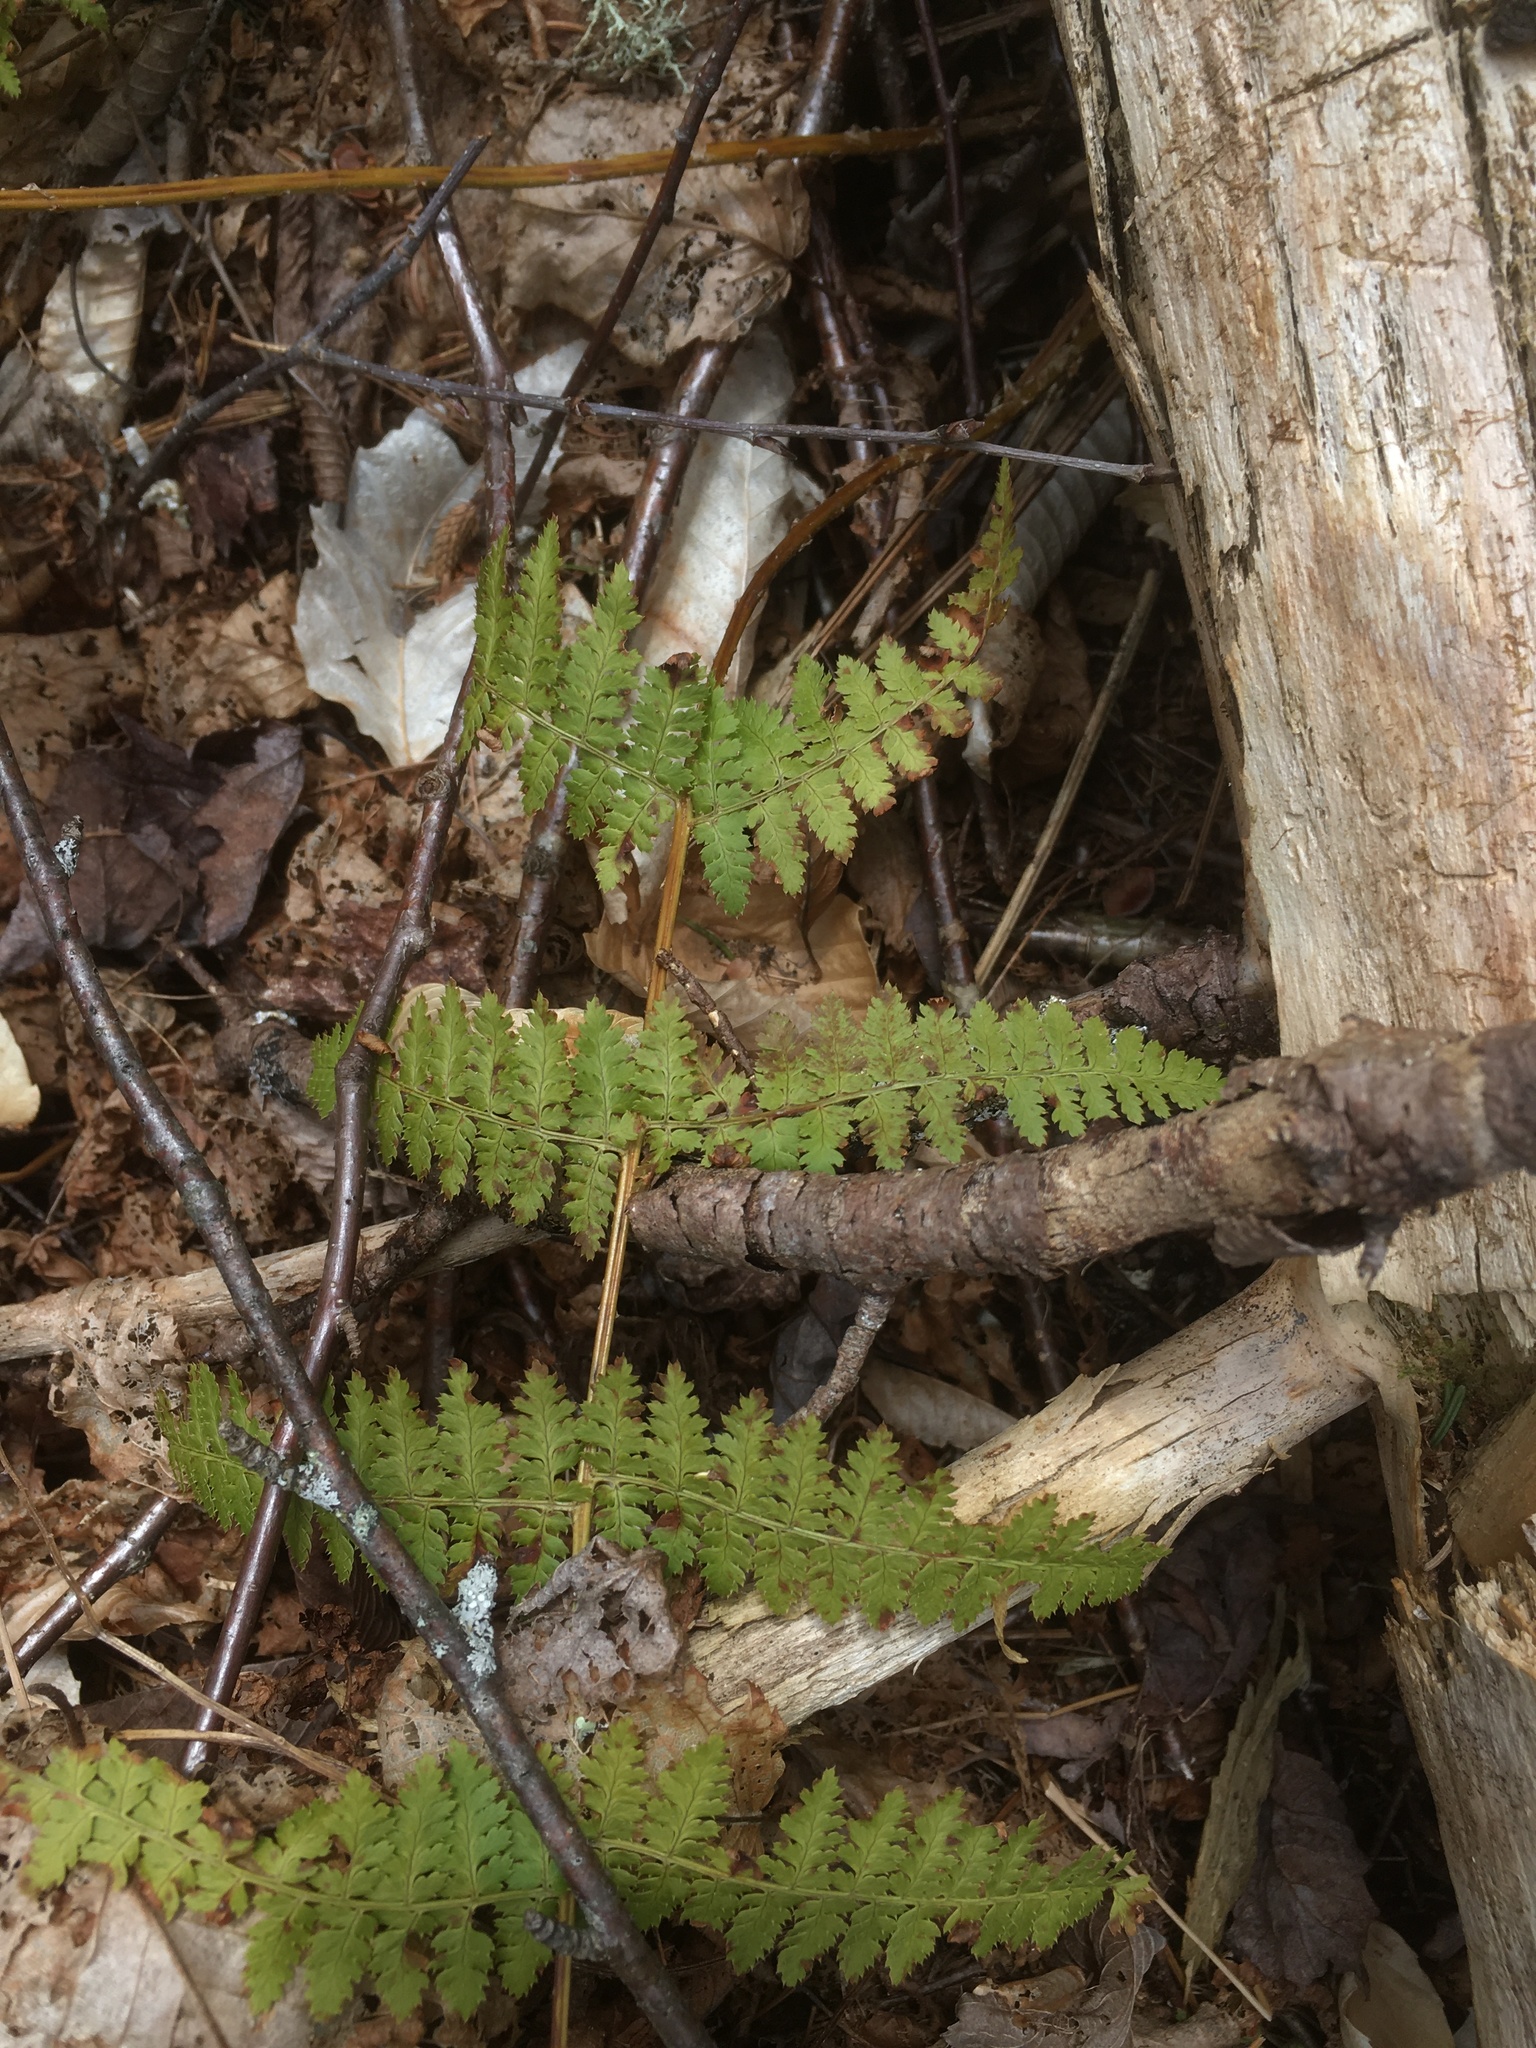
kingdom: Plantae
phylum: Tracheophyta
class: Polypodiopsida
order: Polypodiales
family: Dryopteridaceae
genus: Dryopteris
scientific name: Dryopteris intermedia
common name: Evergreen wood fern
